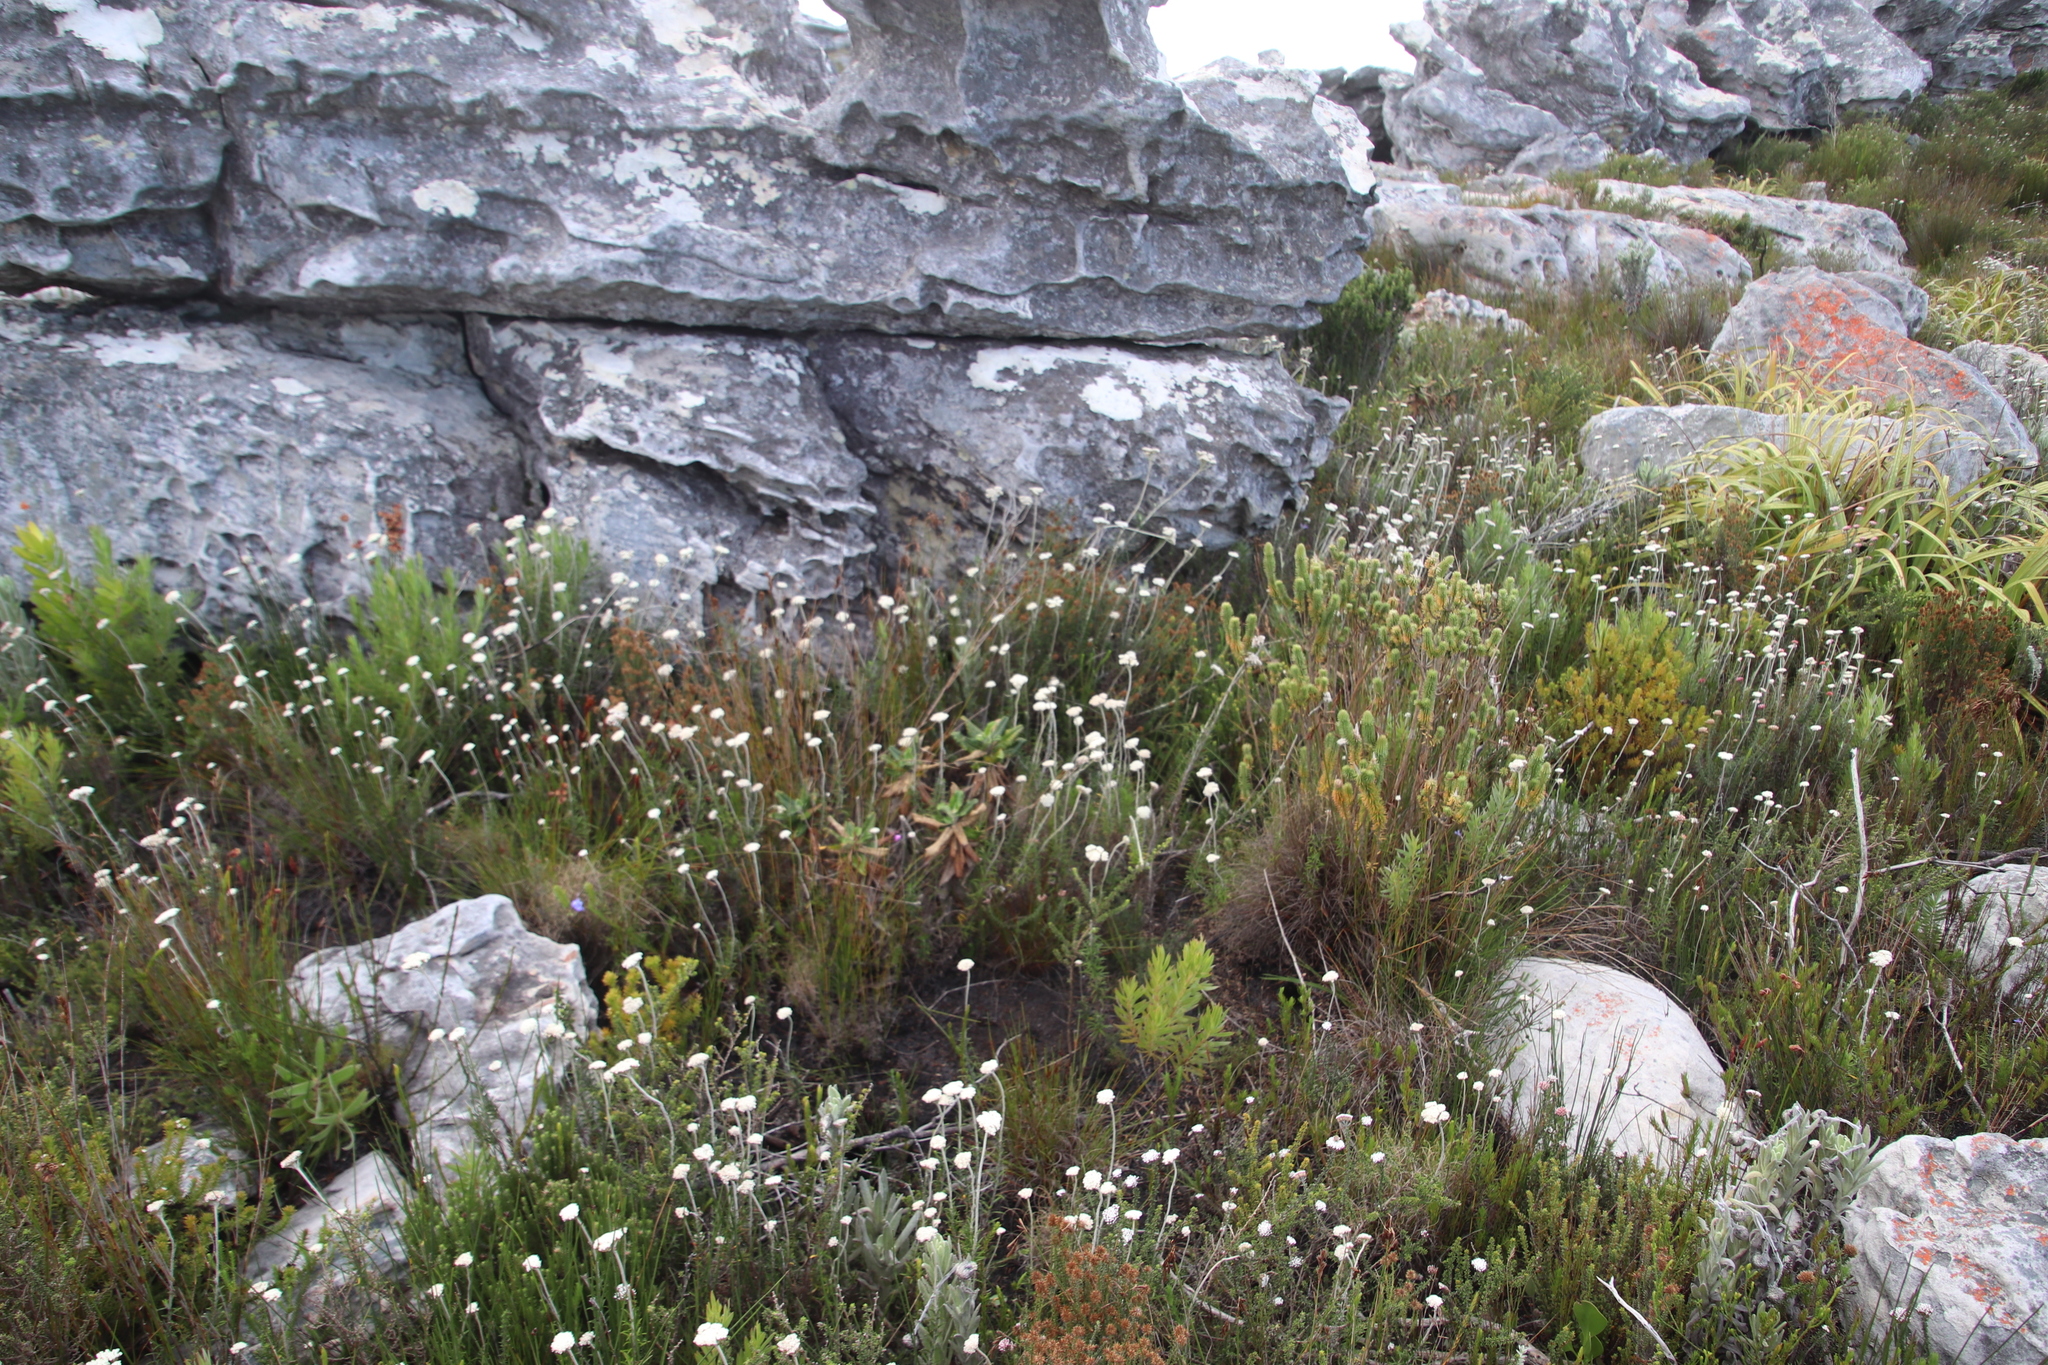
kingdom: Plantae
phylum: Tracheophyta
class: Magnoliopsida
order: Asterales
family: Asteraceae
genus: Anaxeton
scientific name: Anaxeton arborescens
